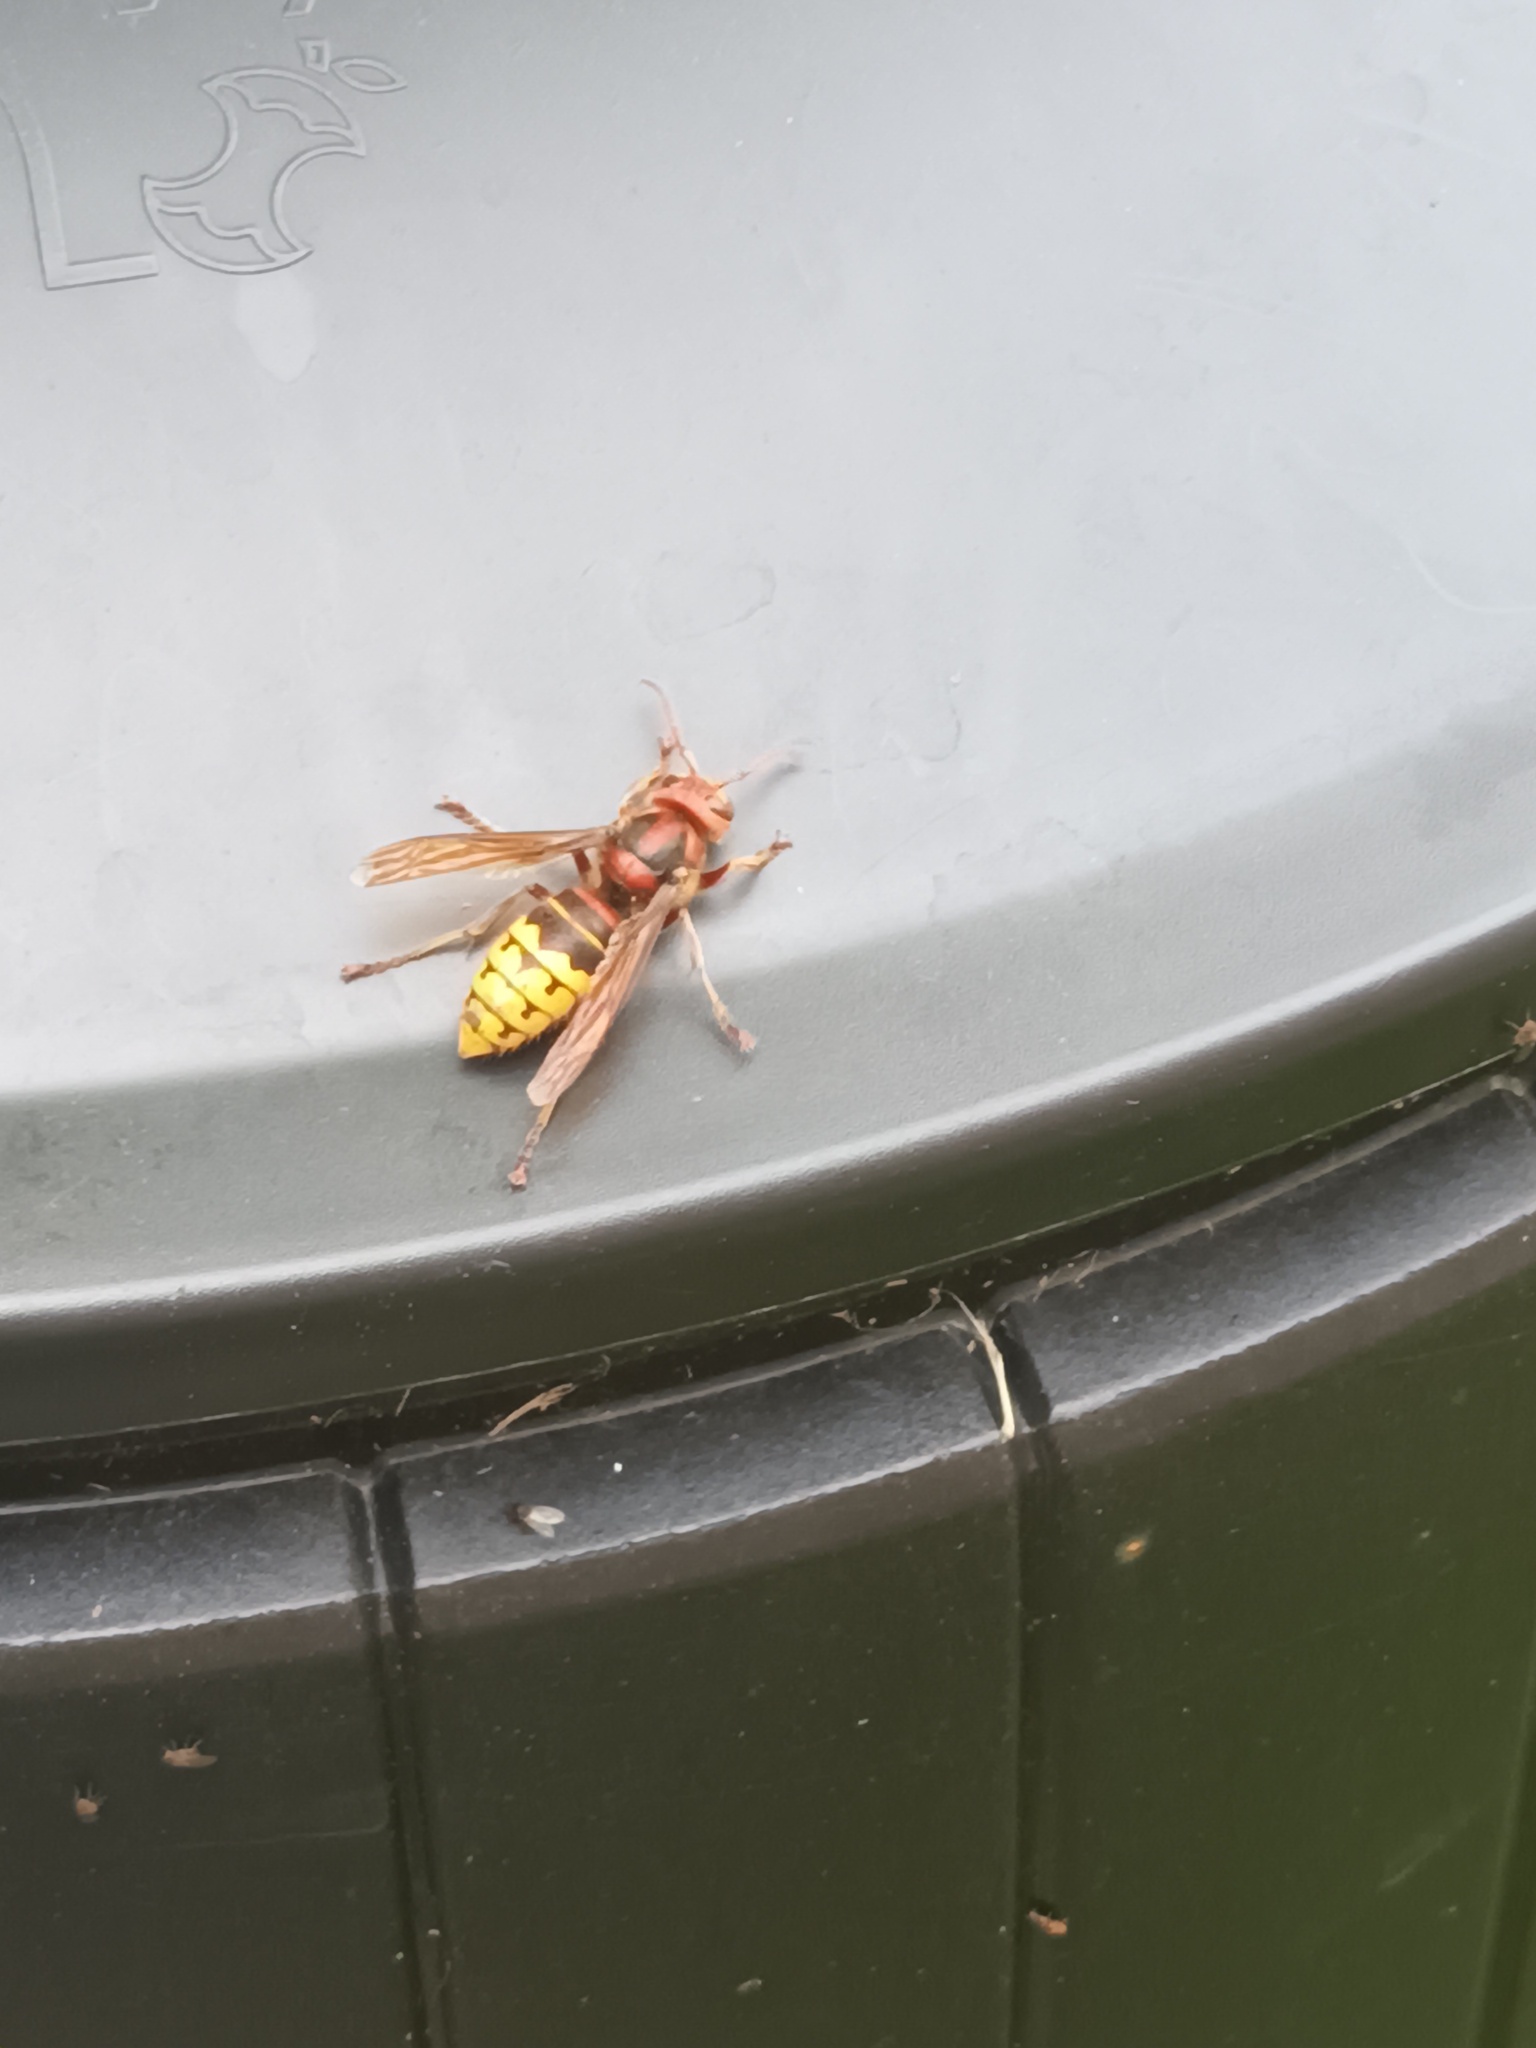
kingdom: Animalia
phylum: Arthropoda
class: Insecta
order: Hymenoptera
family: Vespidae
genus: Vespa
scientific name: Vespa crabro
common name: Hornet
